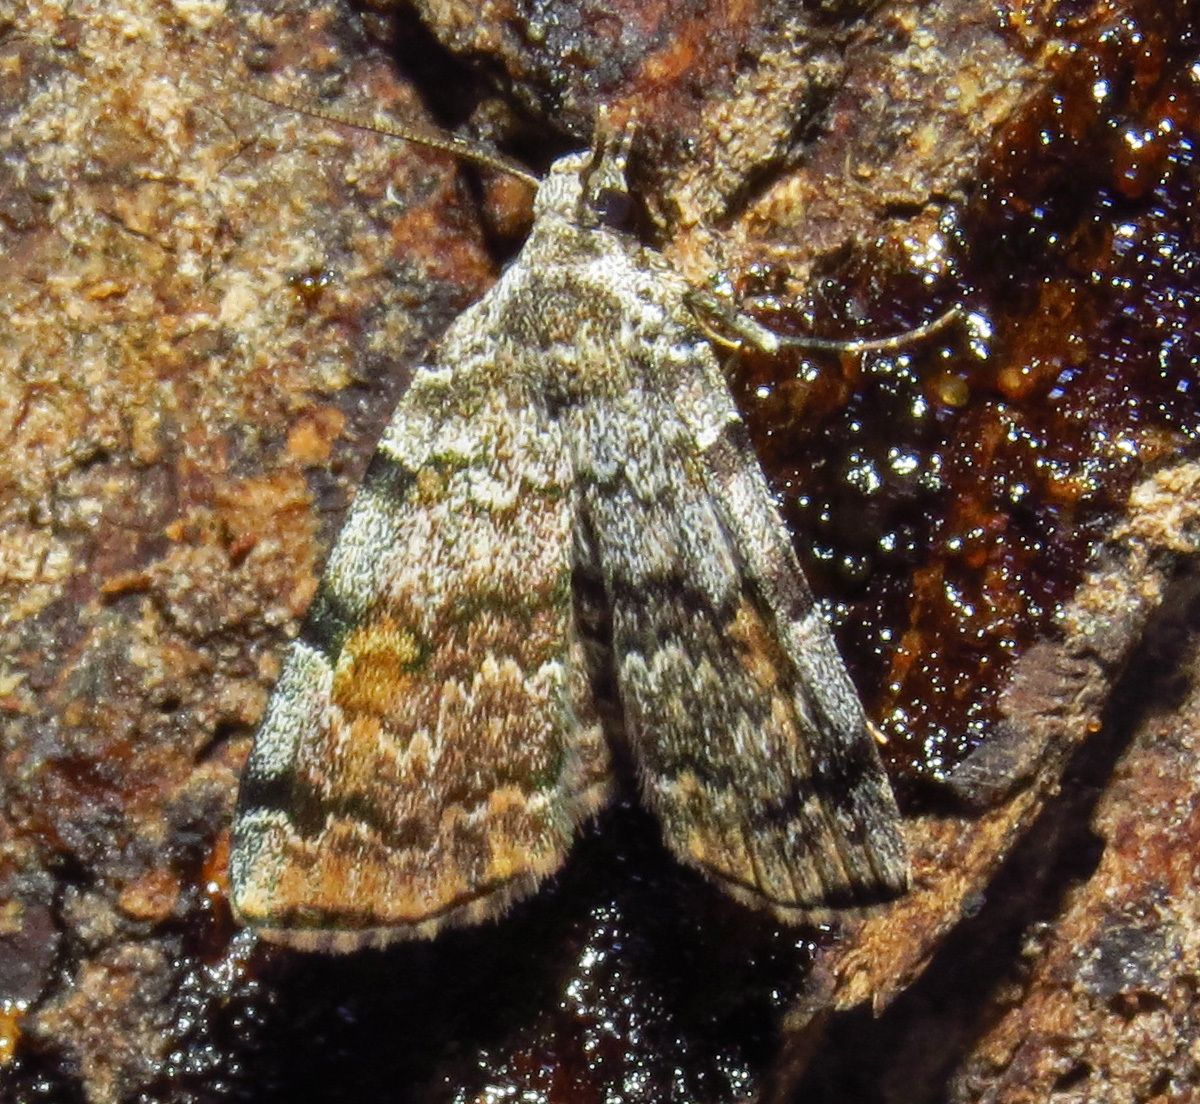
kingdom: Animalia
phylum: Arthropoda
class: Insecta
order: Lepidoptera
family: Erebidae
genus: Idia
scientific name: Idia americalis
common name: American idia moth
